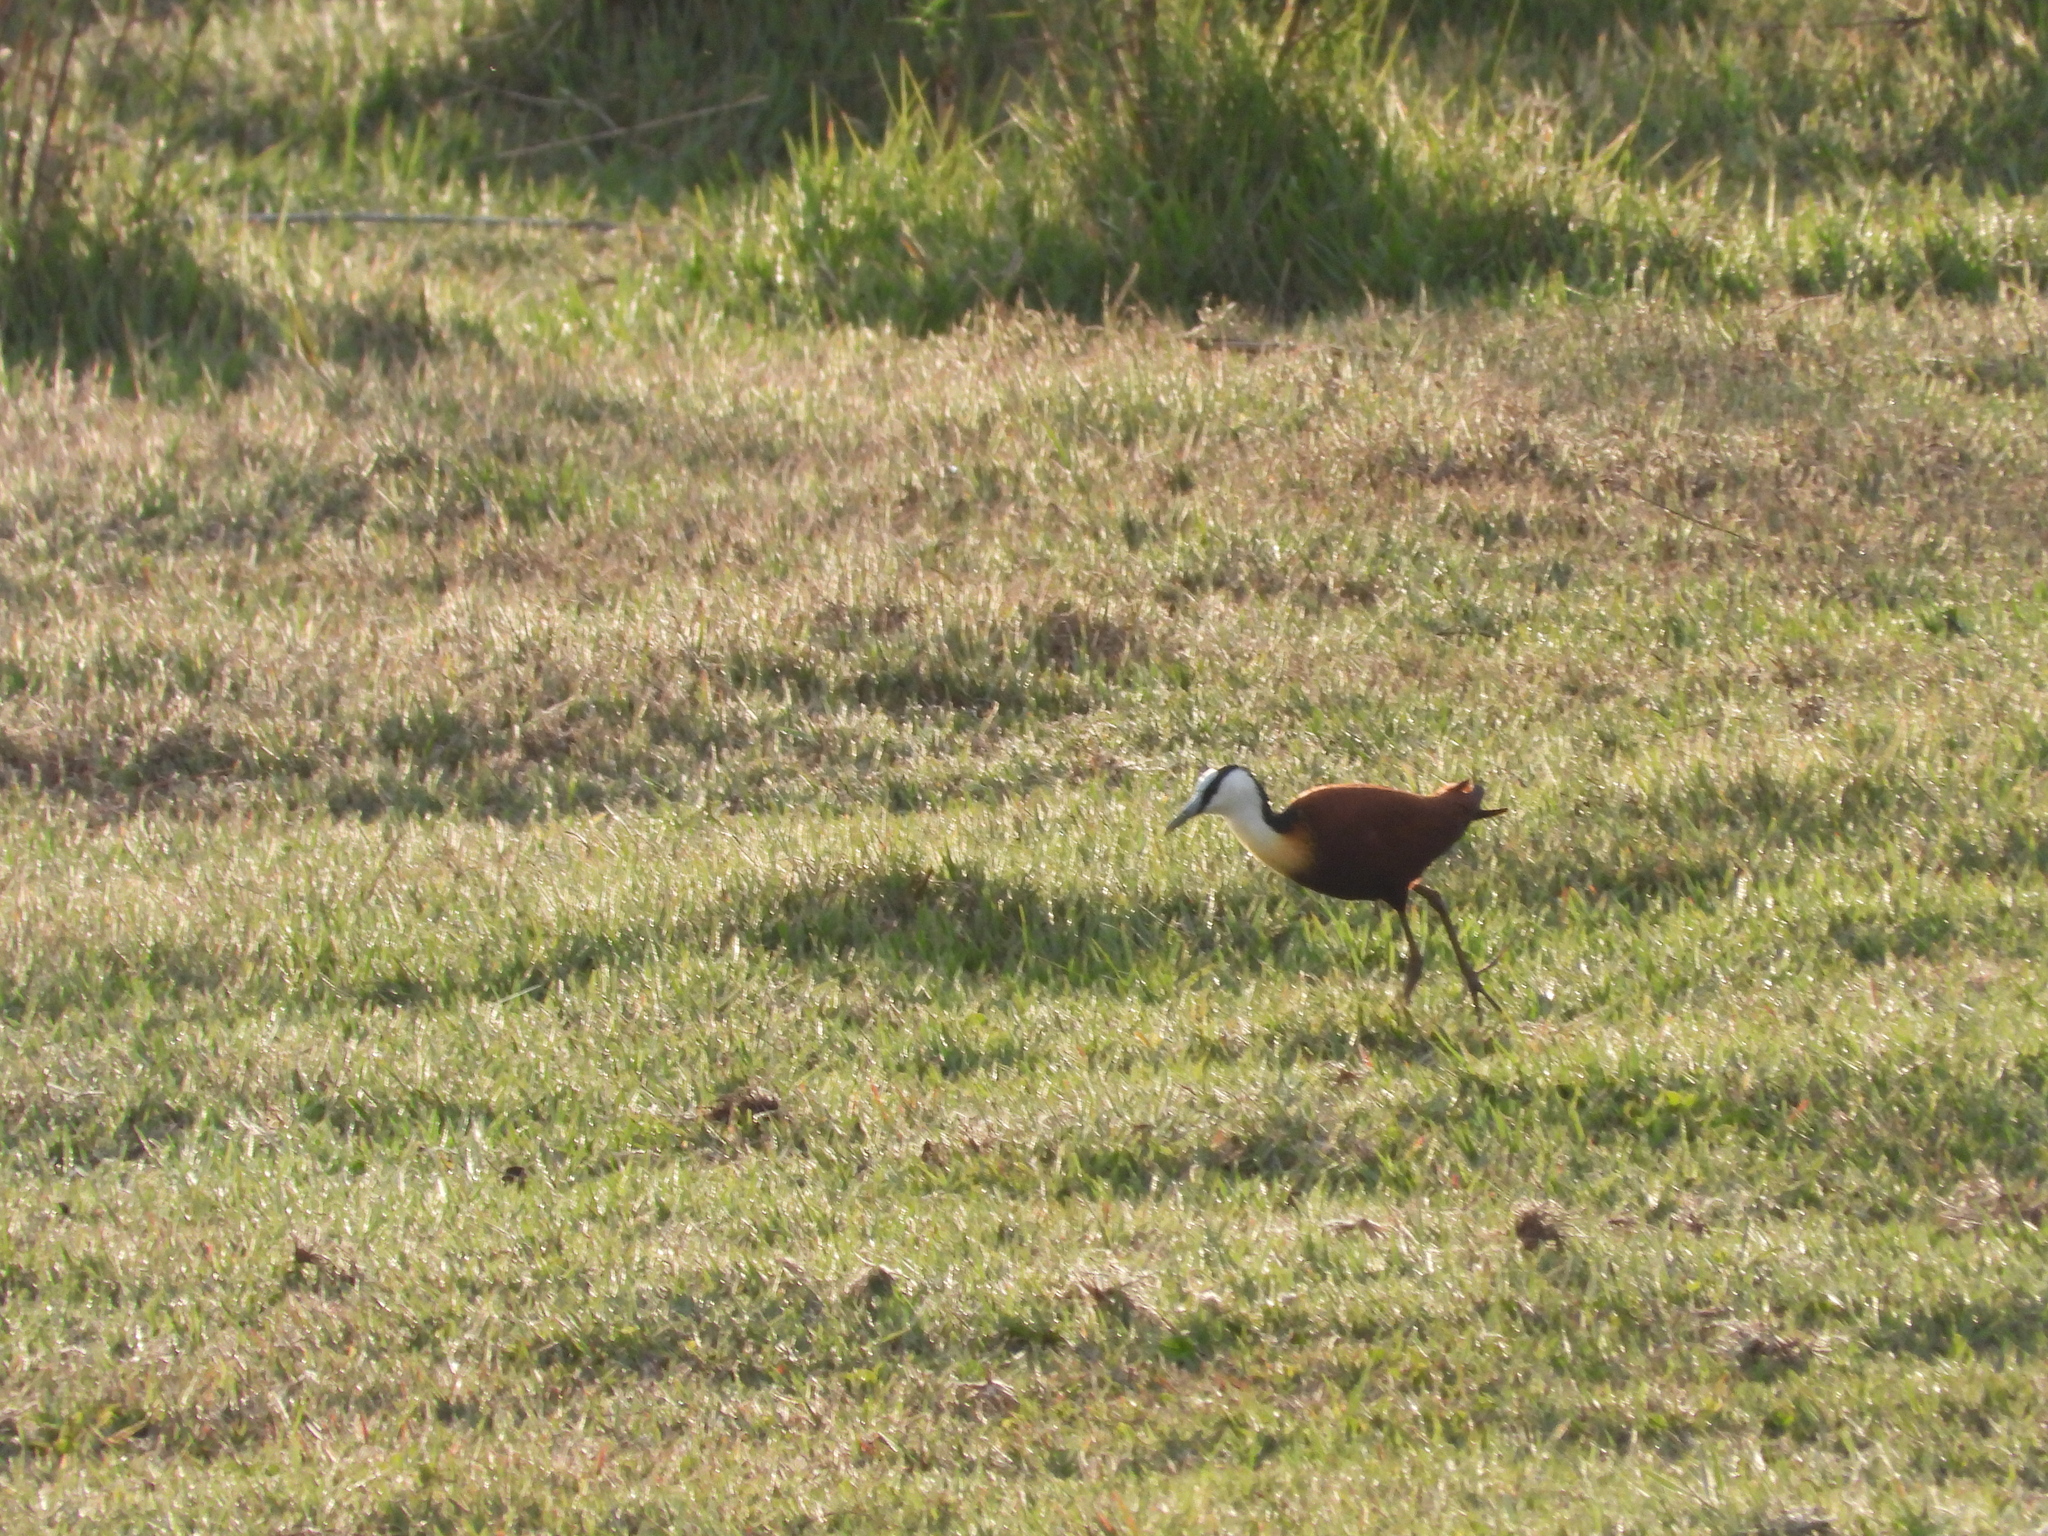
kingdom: Animalia
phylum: Chordata
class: Aves
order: Charadriiformes
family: Jacanidae
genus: Actophilornis
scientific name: Actophilornis africanus
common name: African jacana
